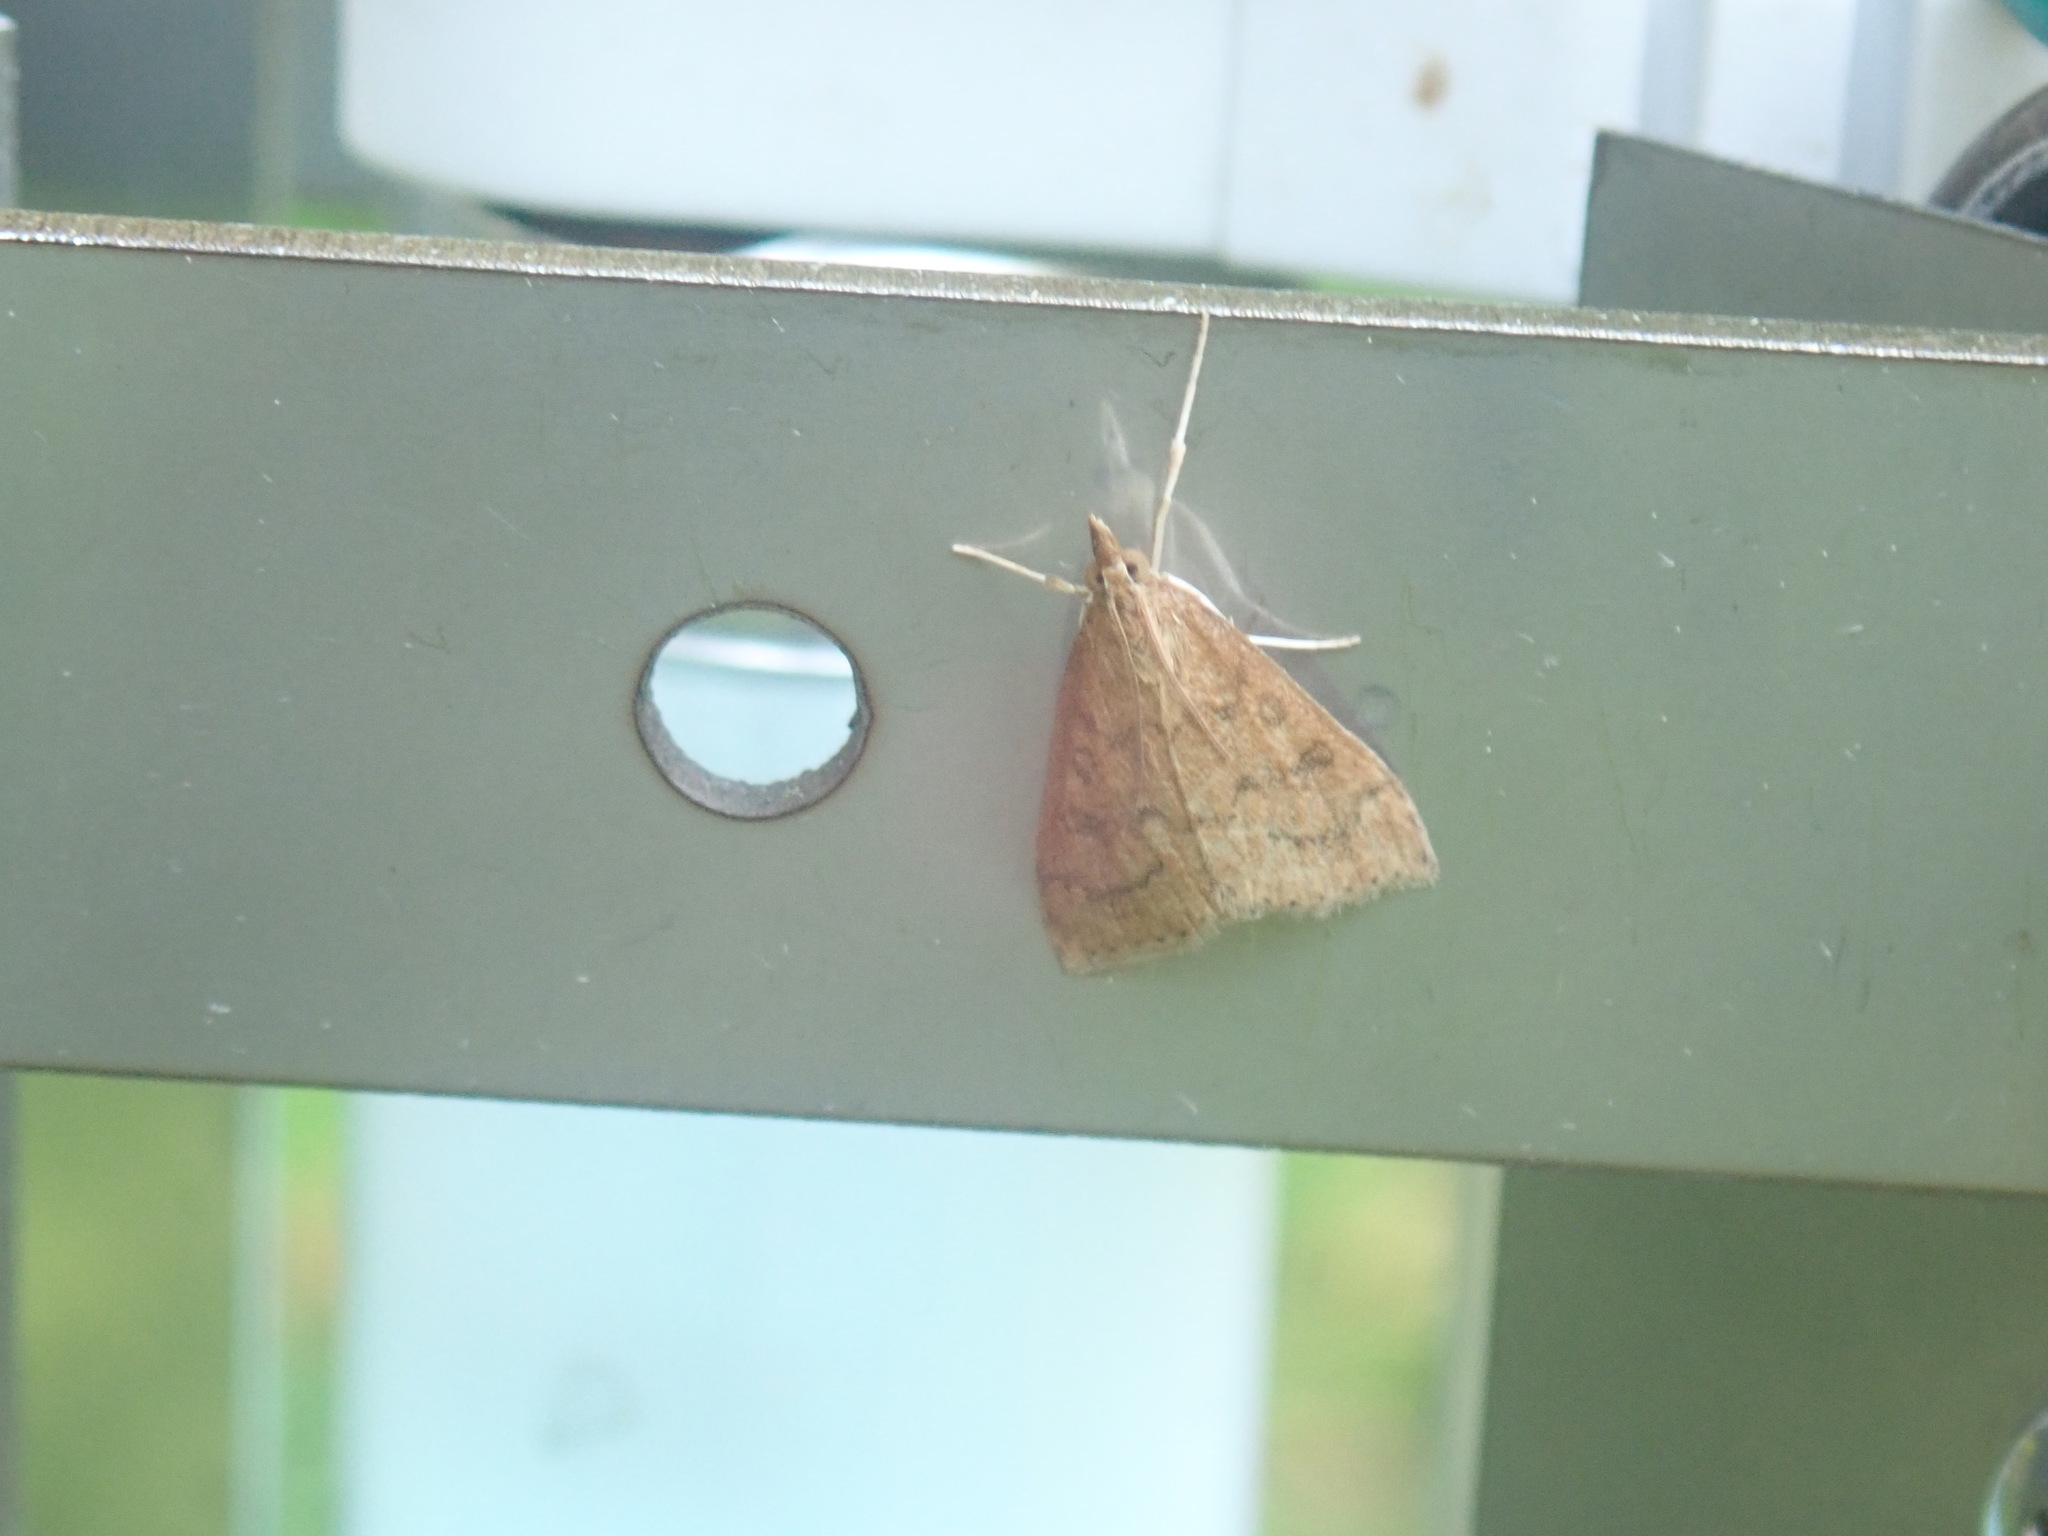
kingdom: Animalia
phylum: Arthropoda
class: Insecta
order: Lepidoptera
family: Crambidae
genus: Udea
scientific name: Udea rubigalis
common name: Celery leaftier moth
